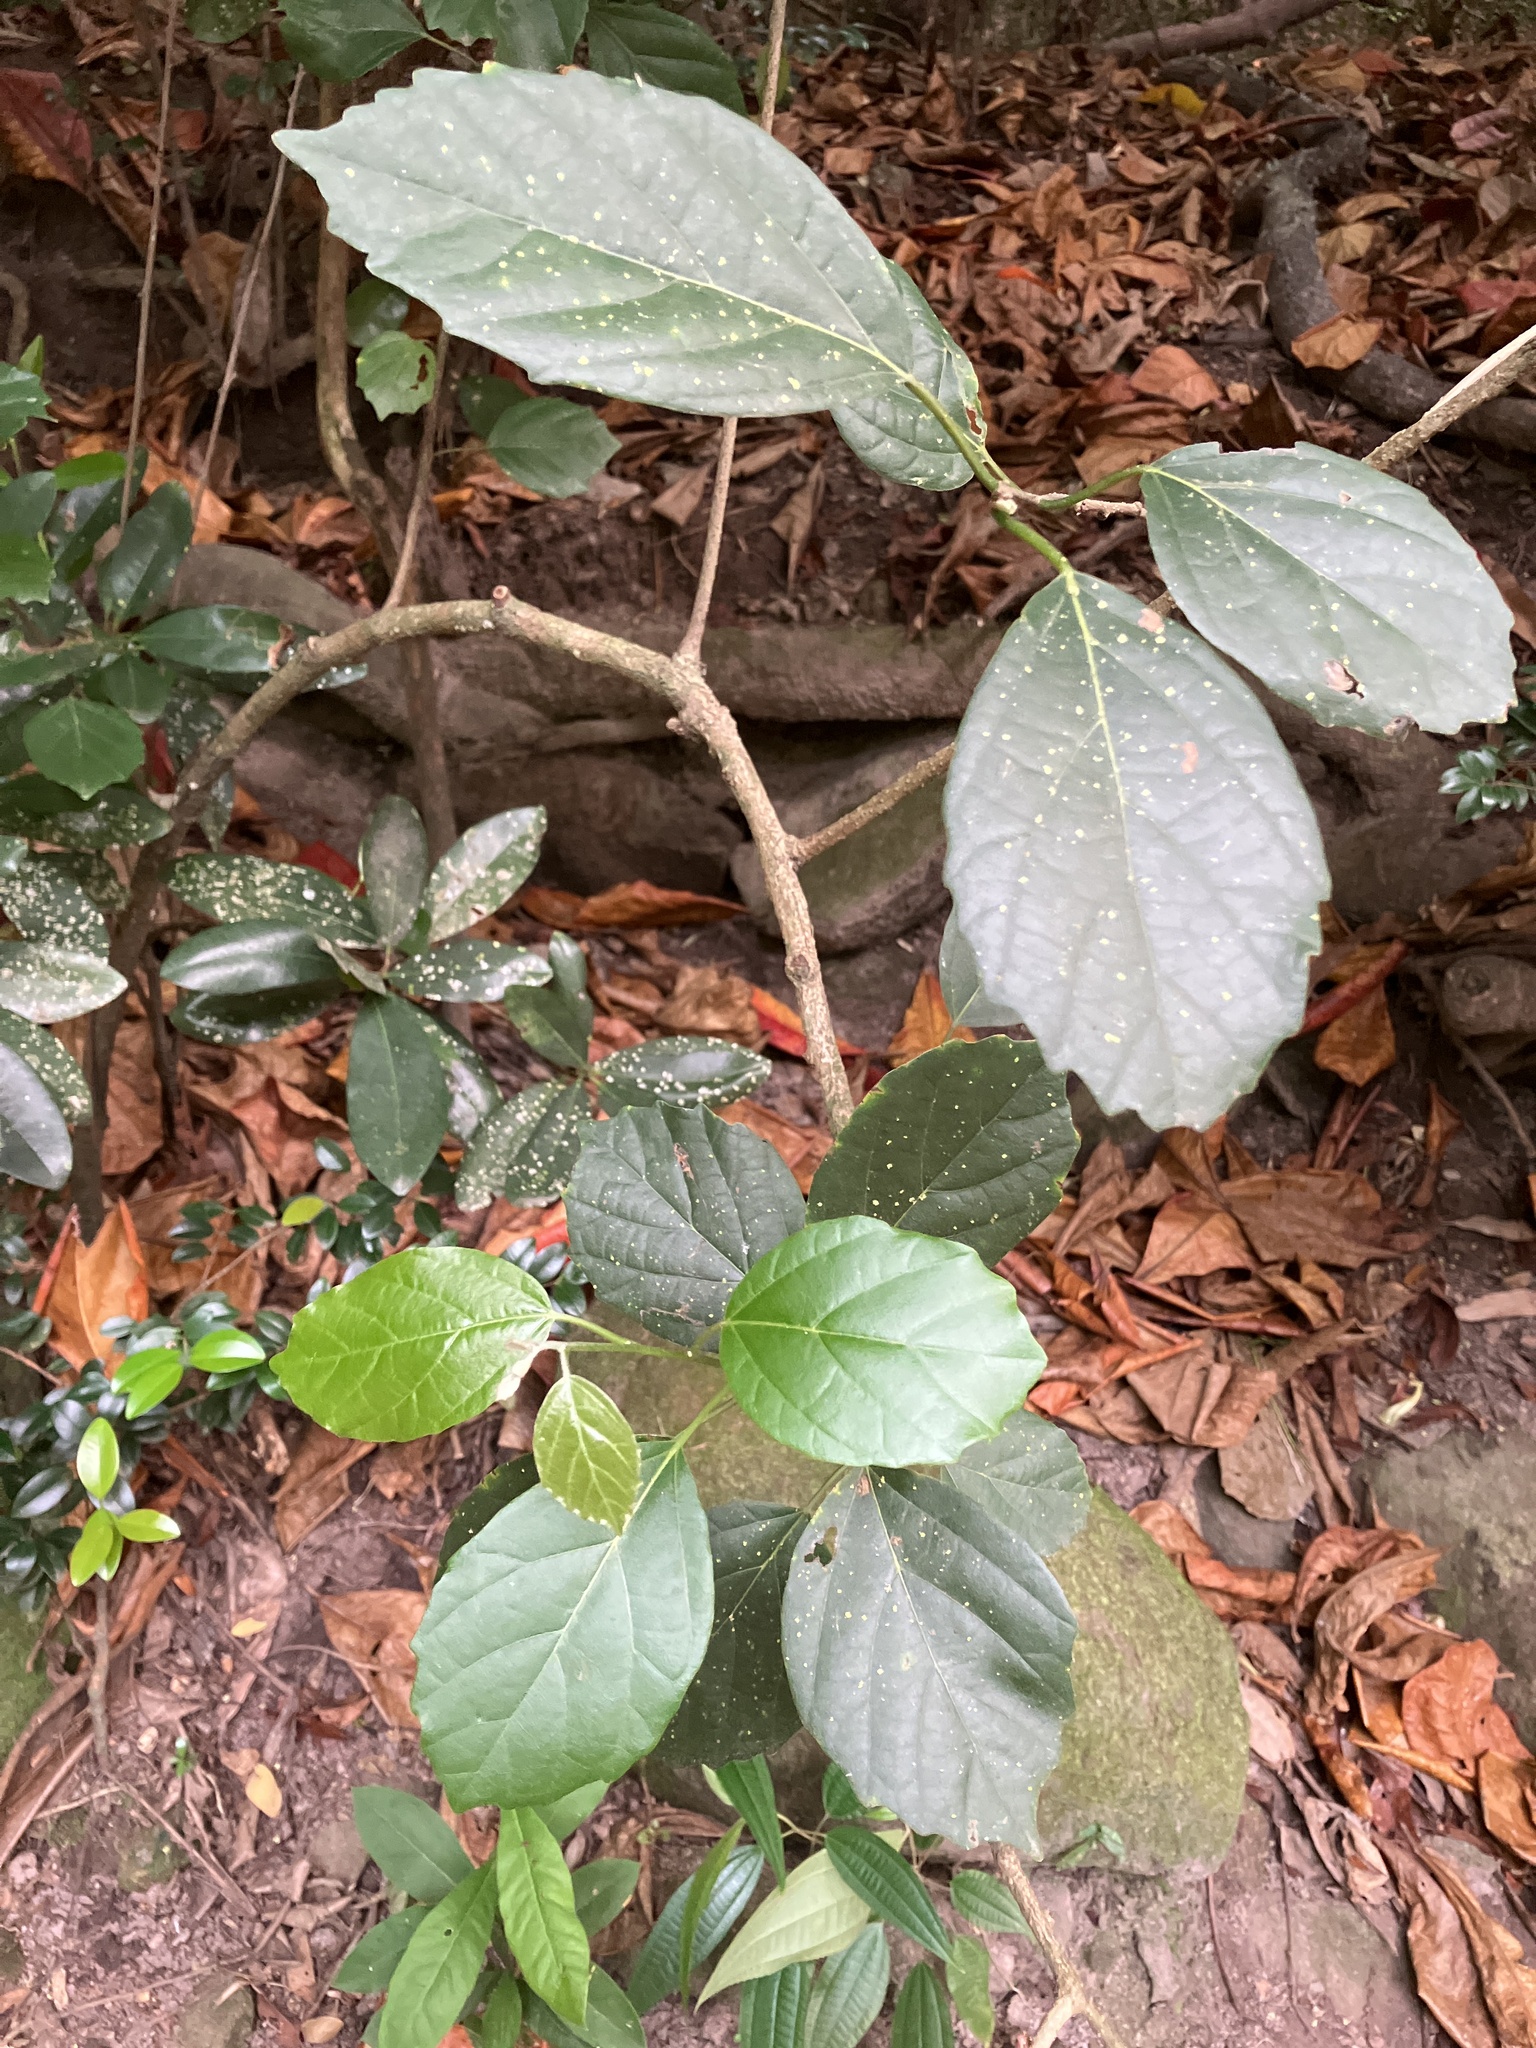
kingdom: Plantae
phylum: Tracheophyta
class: Magnoliopsida
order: Boraginales
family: Cordiaceae
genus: Cordia
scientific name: Cordia dichotoma
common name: Fragrant manjack
